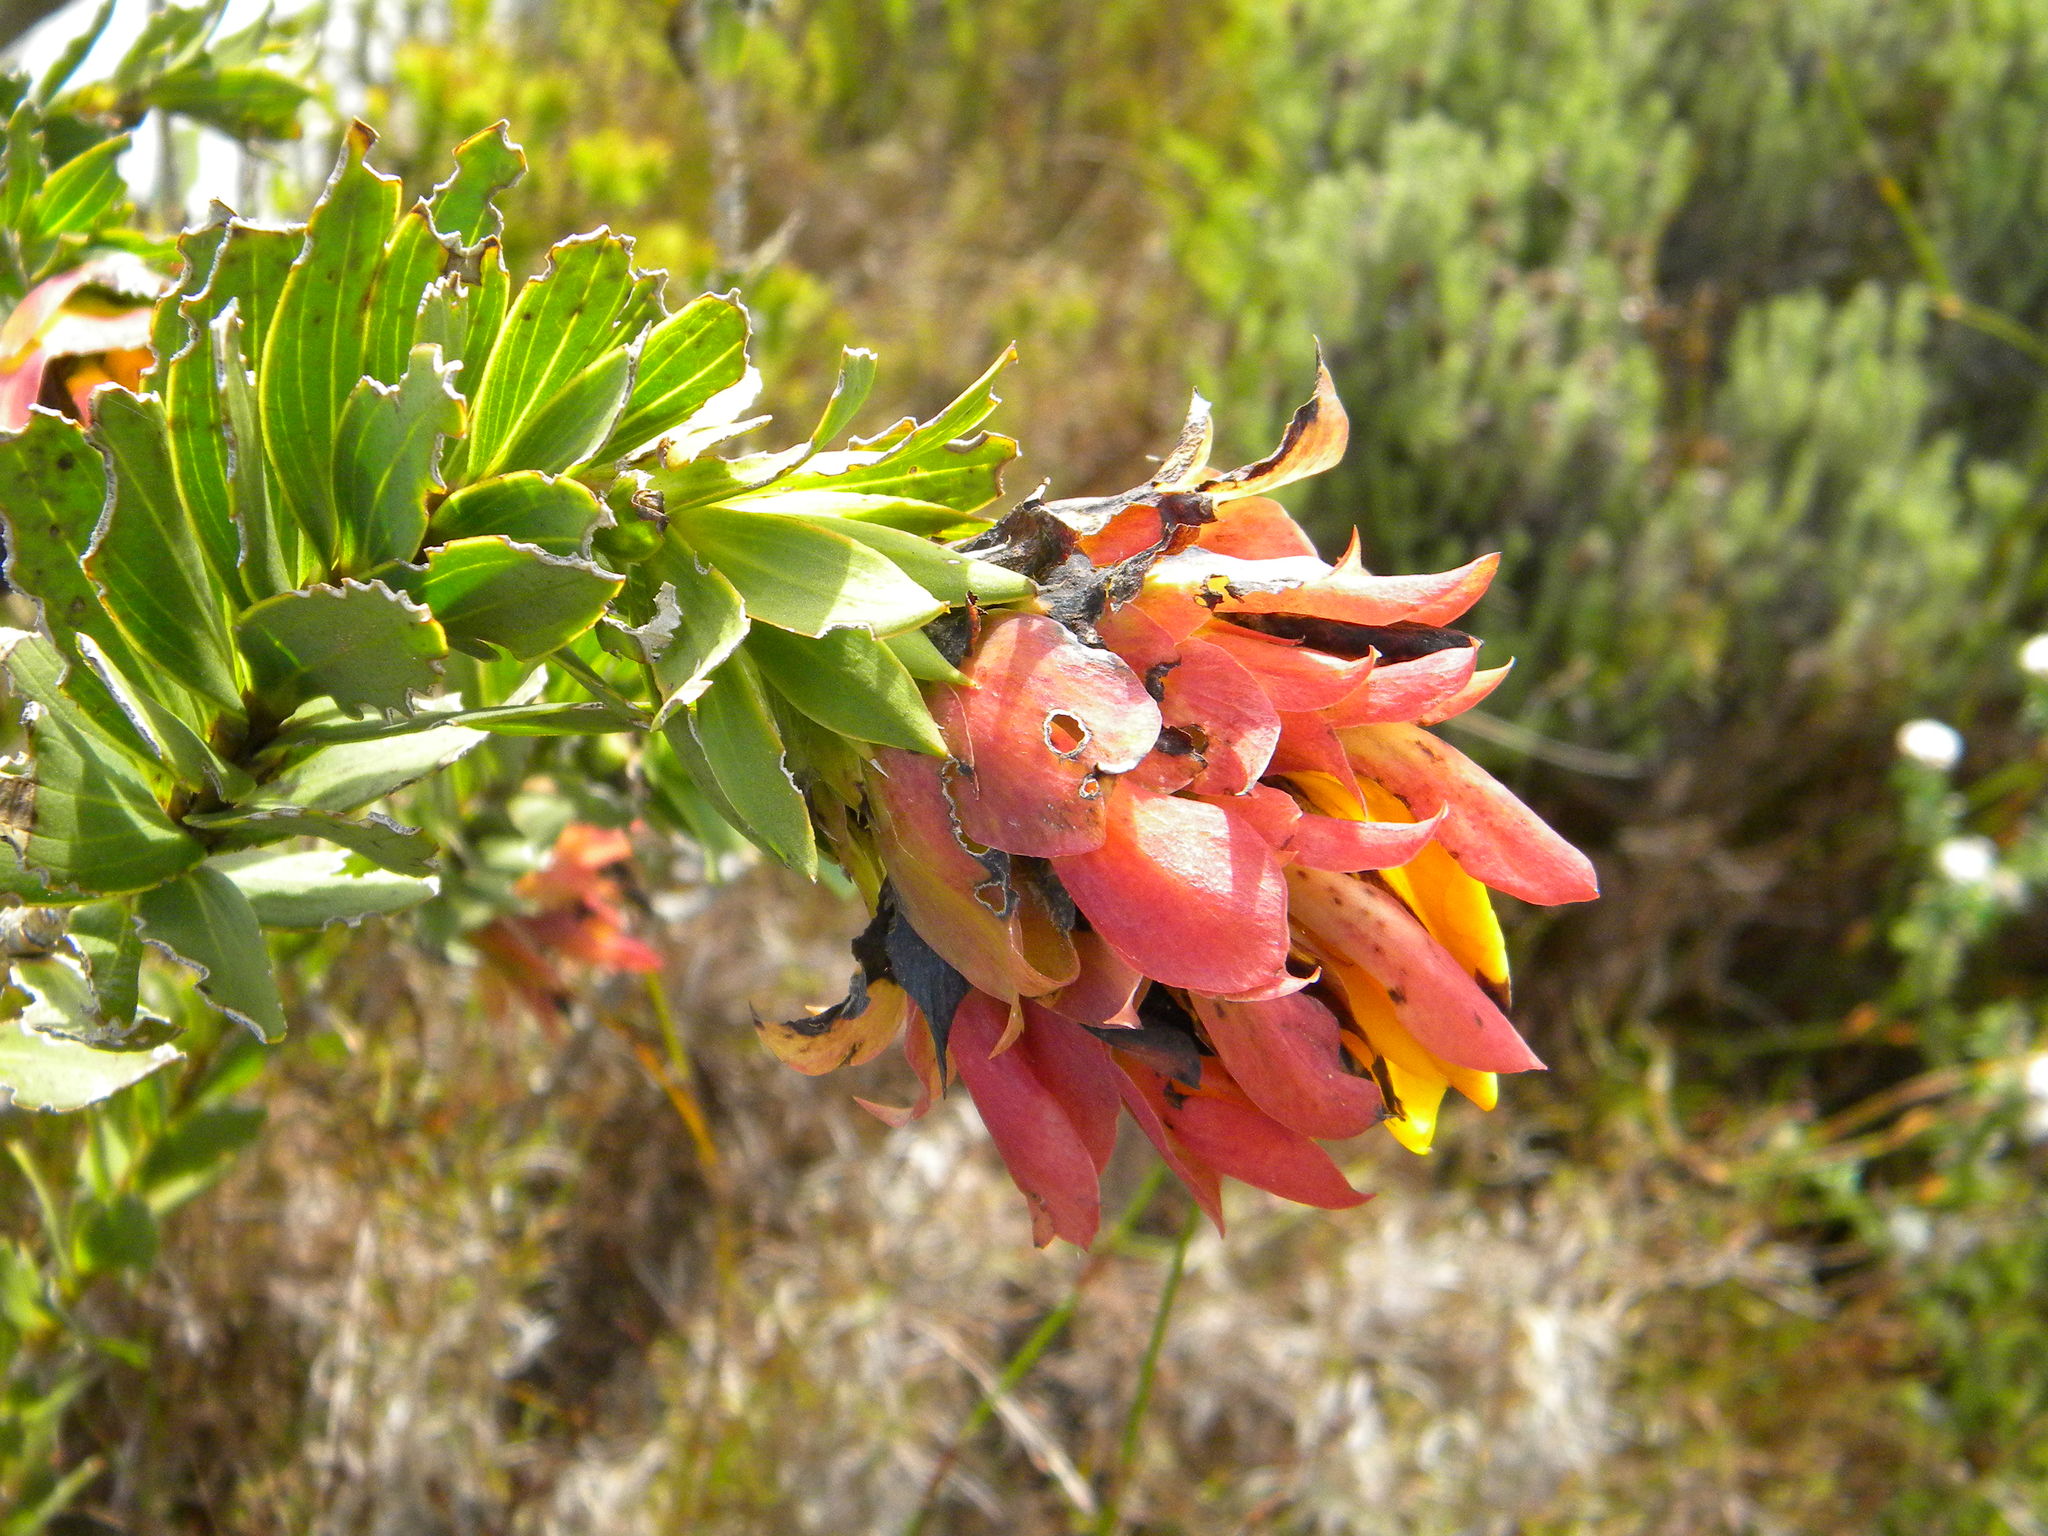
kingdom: Plantae
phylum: Tracheophyta
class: Magnoliopsida
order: Fabales
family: Fabaceae
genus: Liparia
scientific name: Liparia splendens
